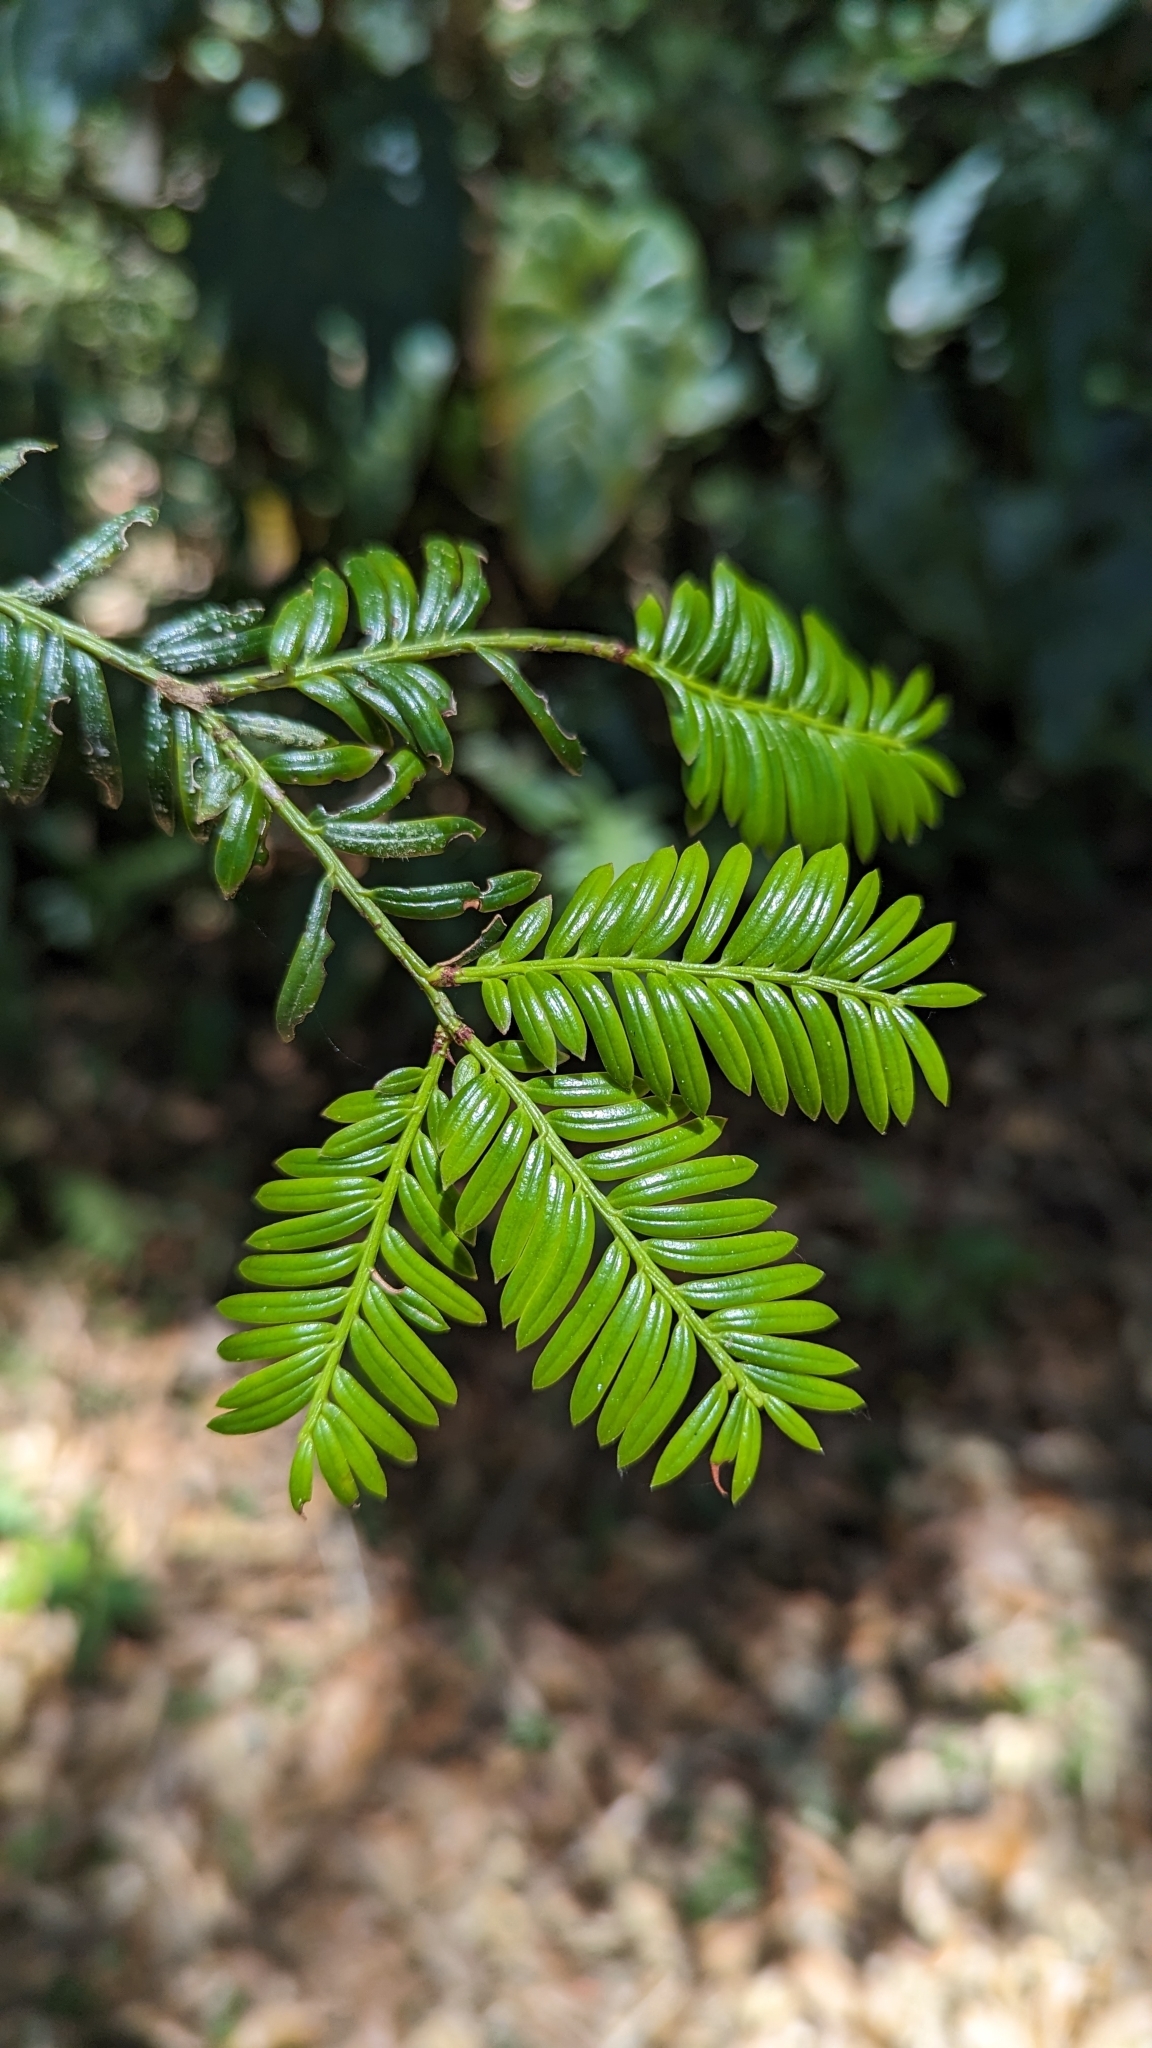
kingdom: Plantae
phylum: Tracheophyta
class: Pinopsida
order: Pinales
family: Podocarpaceae
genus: Prumnopitys
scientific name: Prumnopitys standleyi
